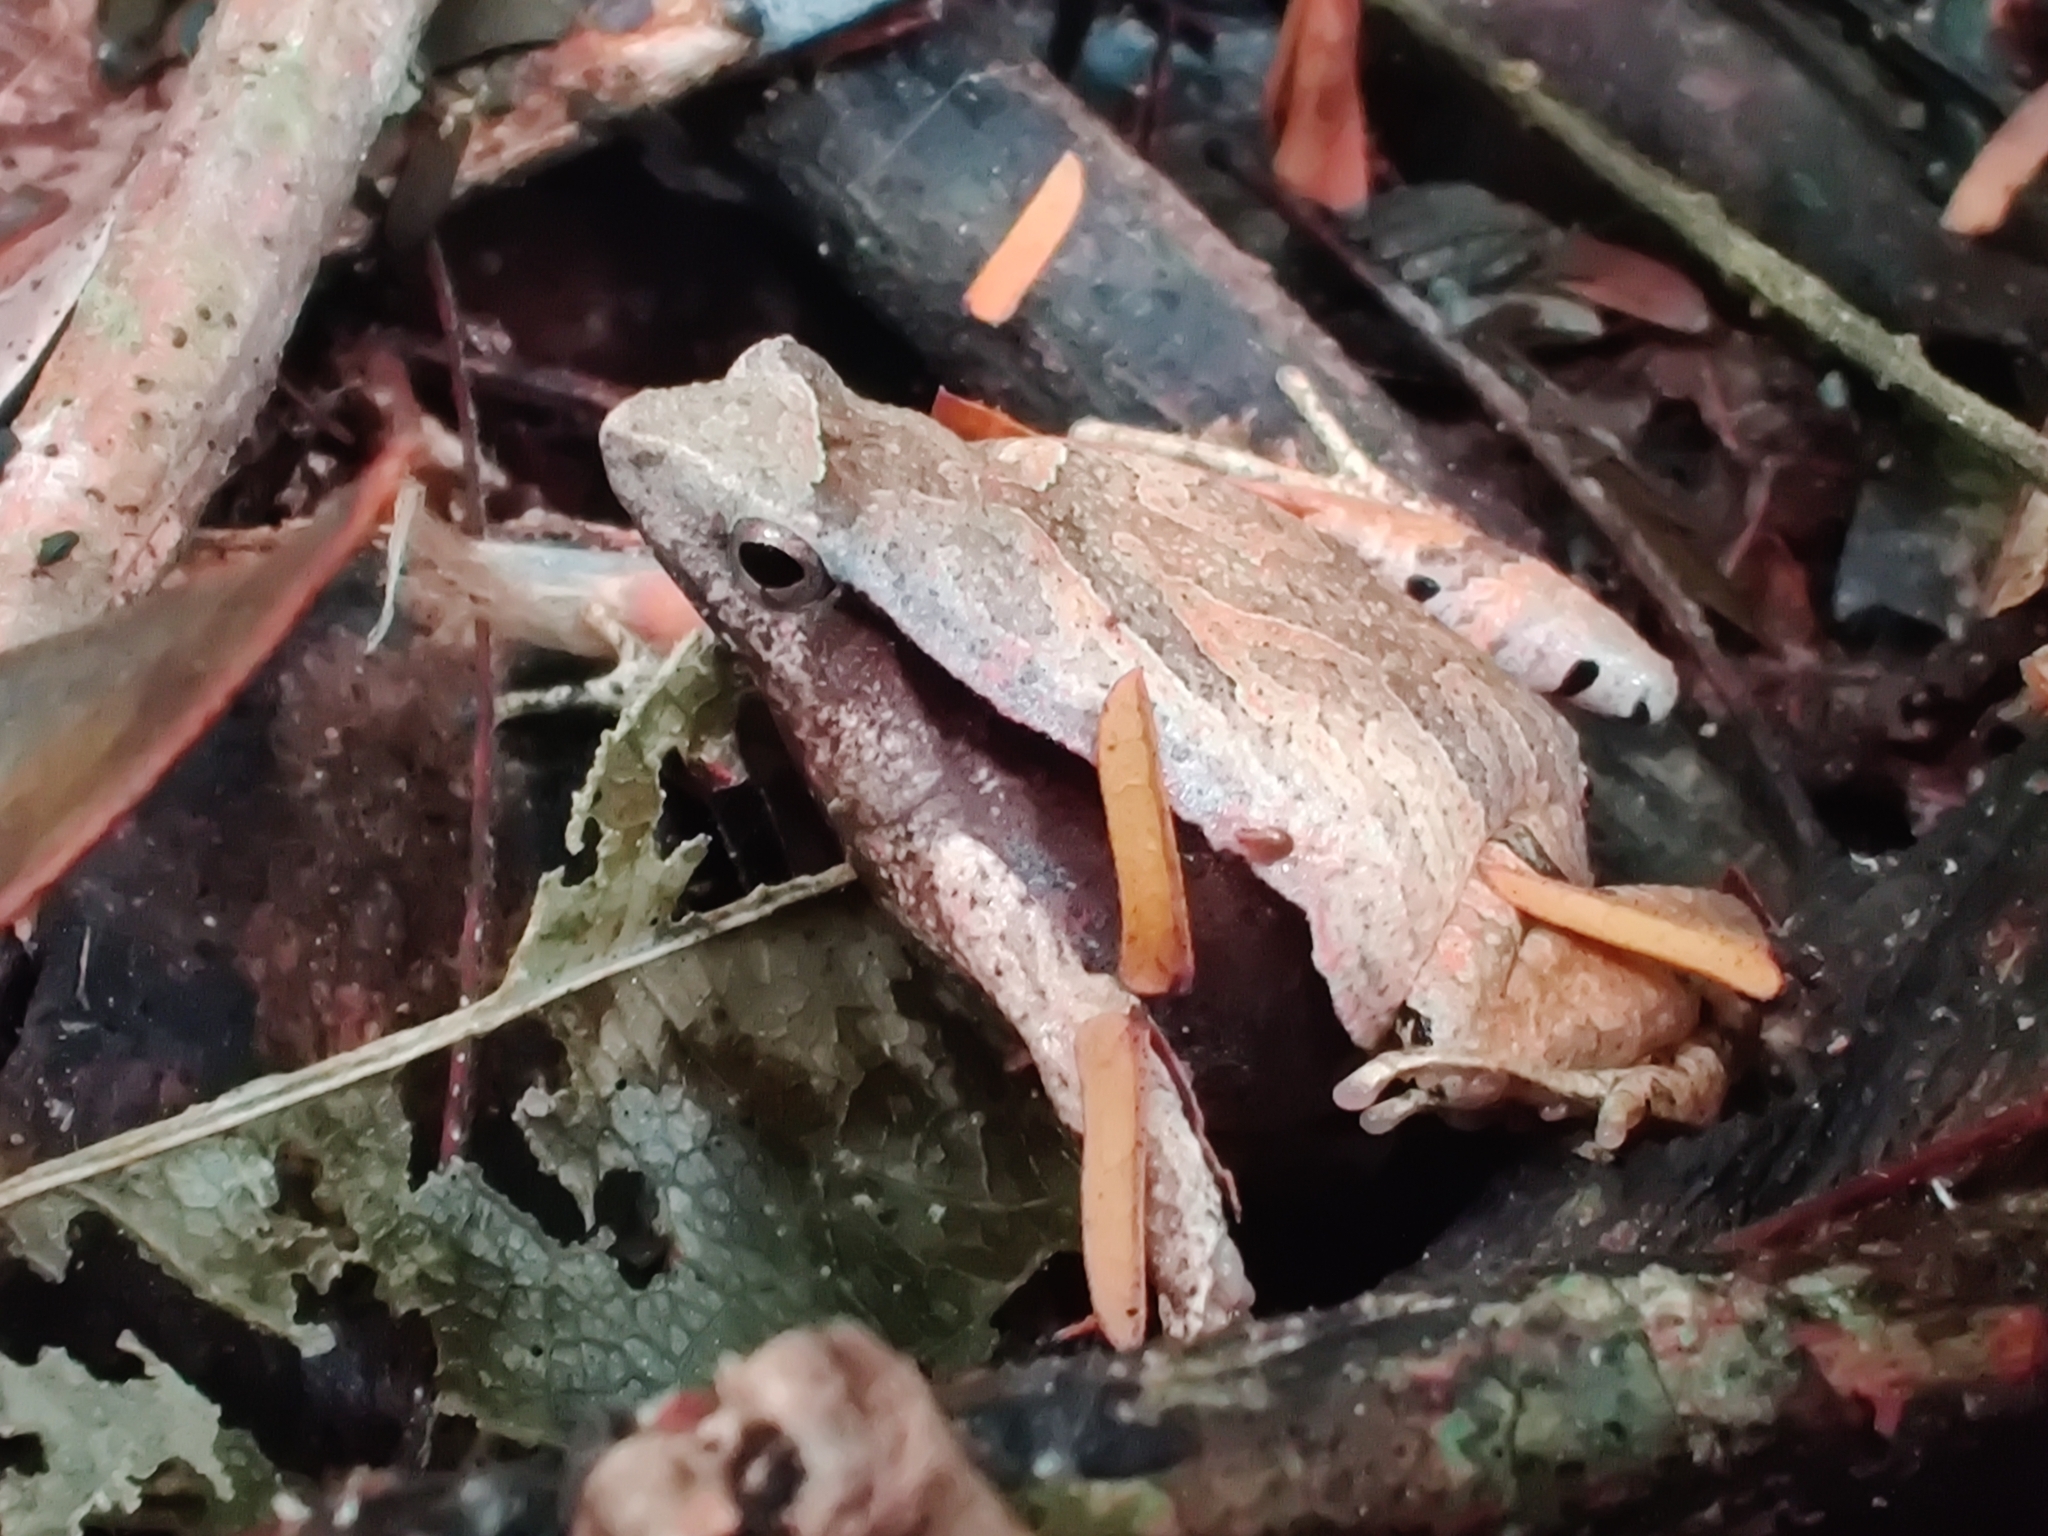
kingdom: Animalia
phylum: Chordata
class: Amphibia
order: Anura
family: Leptodactylidae
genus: Physalaemus
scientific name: Physalaemus obtectus
